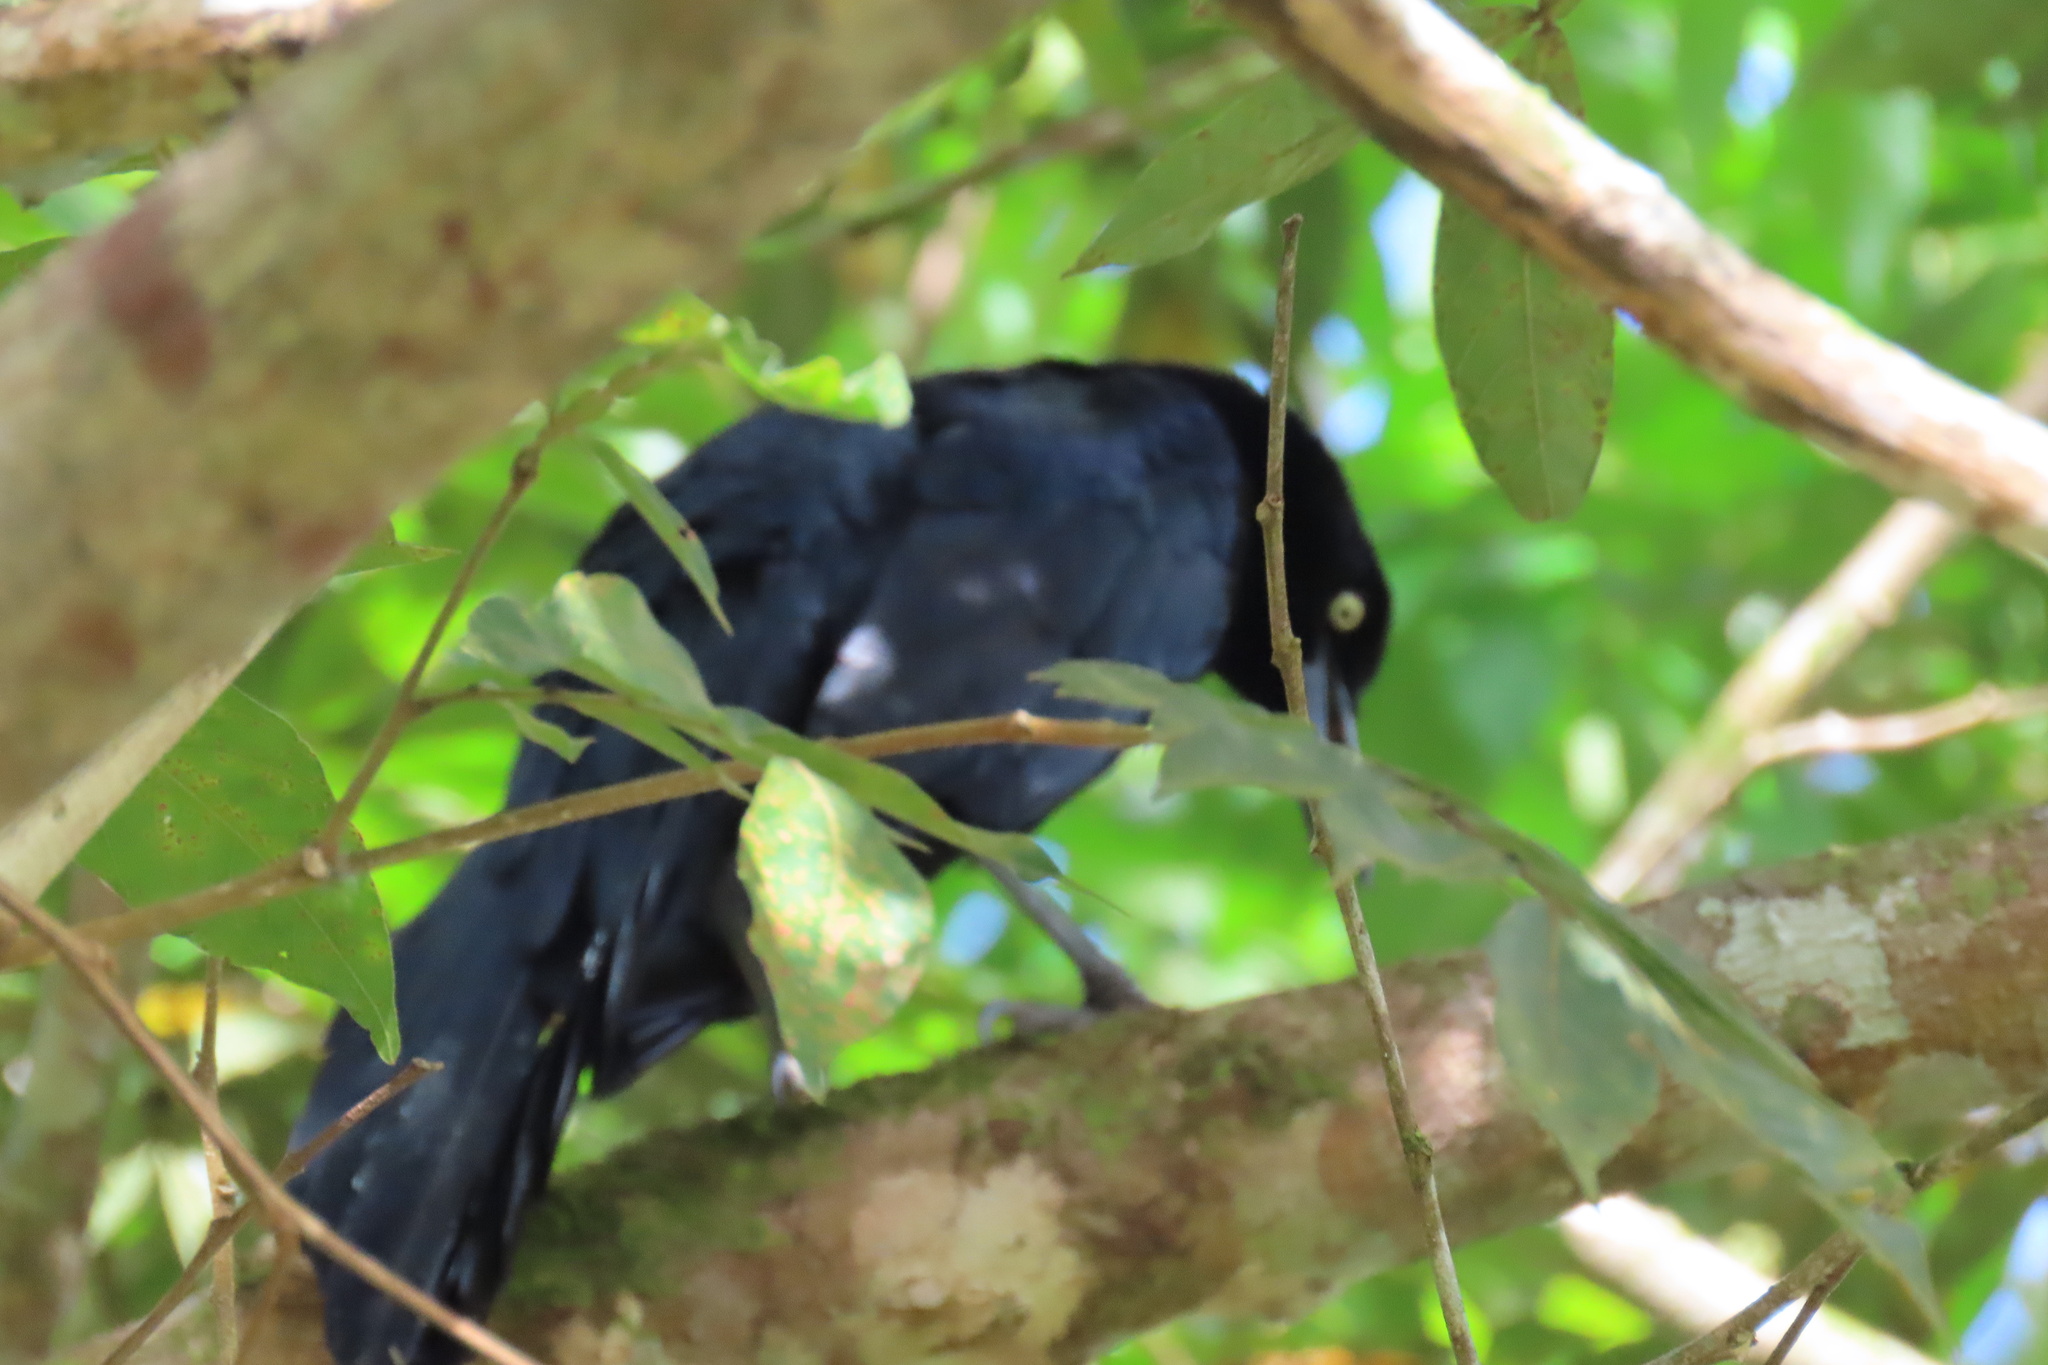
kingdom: Animalia
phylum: Chordata
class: Aves
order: Passeriformes
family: Icteridae
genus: Quiscalus
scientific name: Quiscalus mexicanus
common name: Great-tailed grackle
